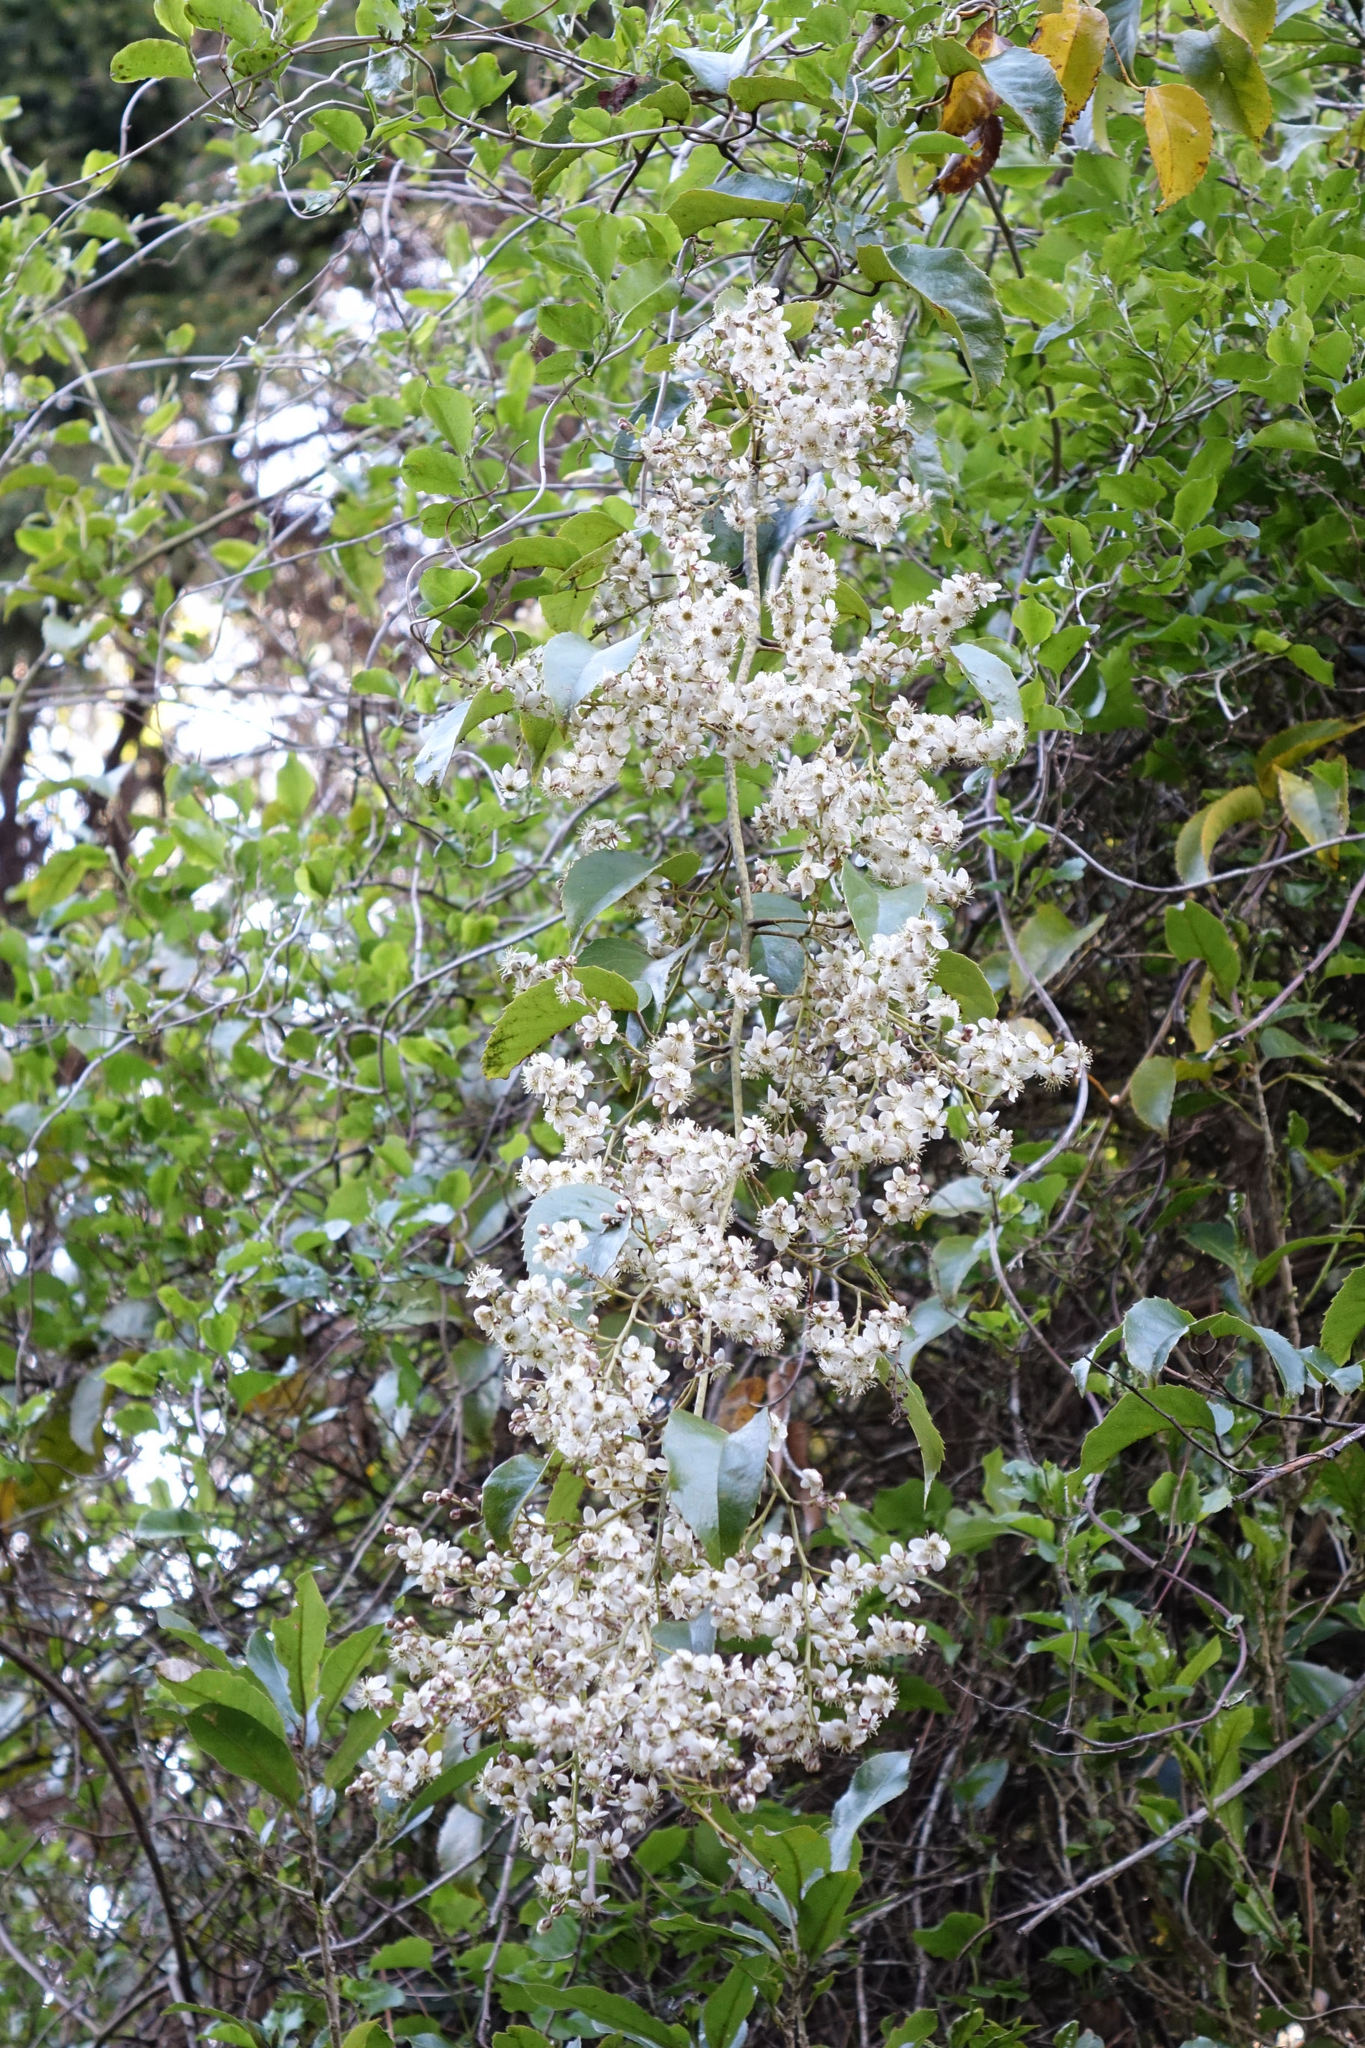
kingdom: Plantae
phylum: Tracheophyta
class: Magnoliopsida
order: Rosales
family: Rosaceae
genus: Rubus
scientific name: Rubus cissoides
